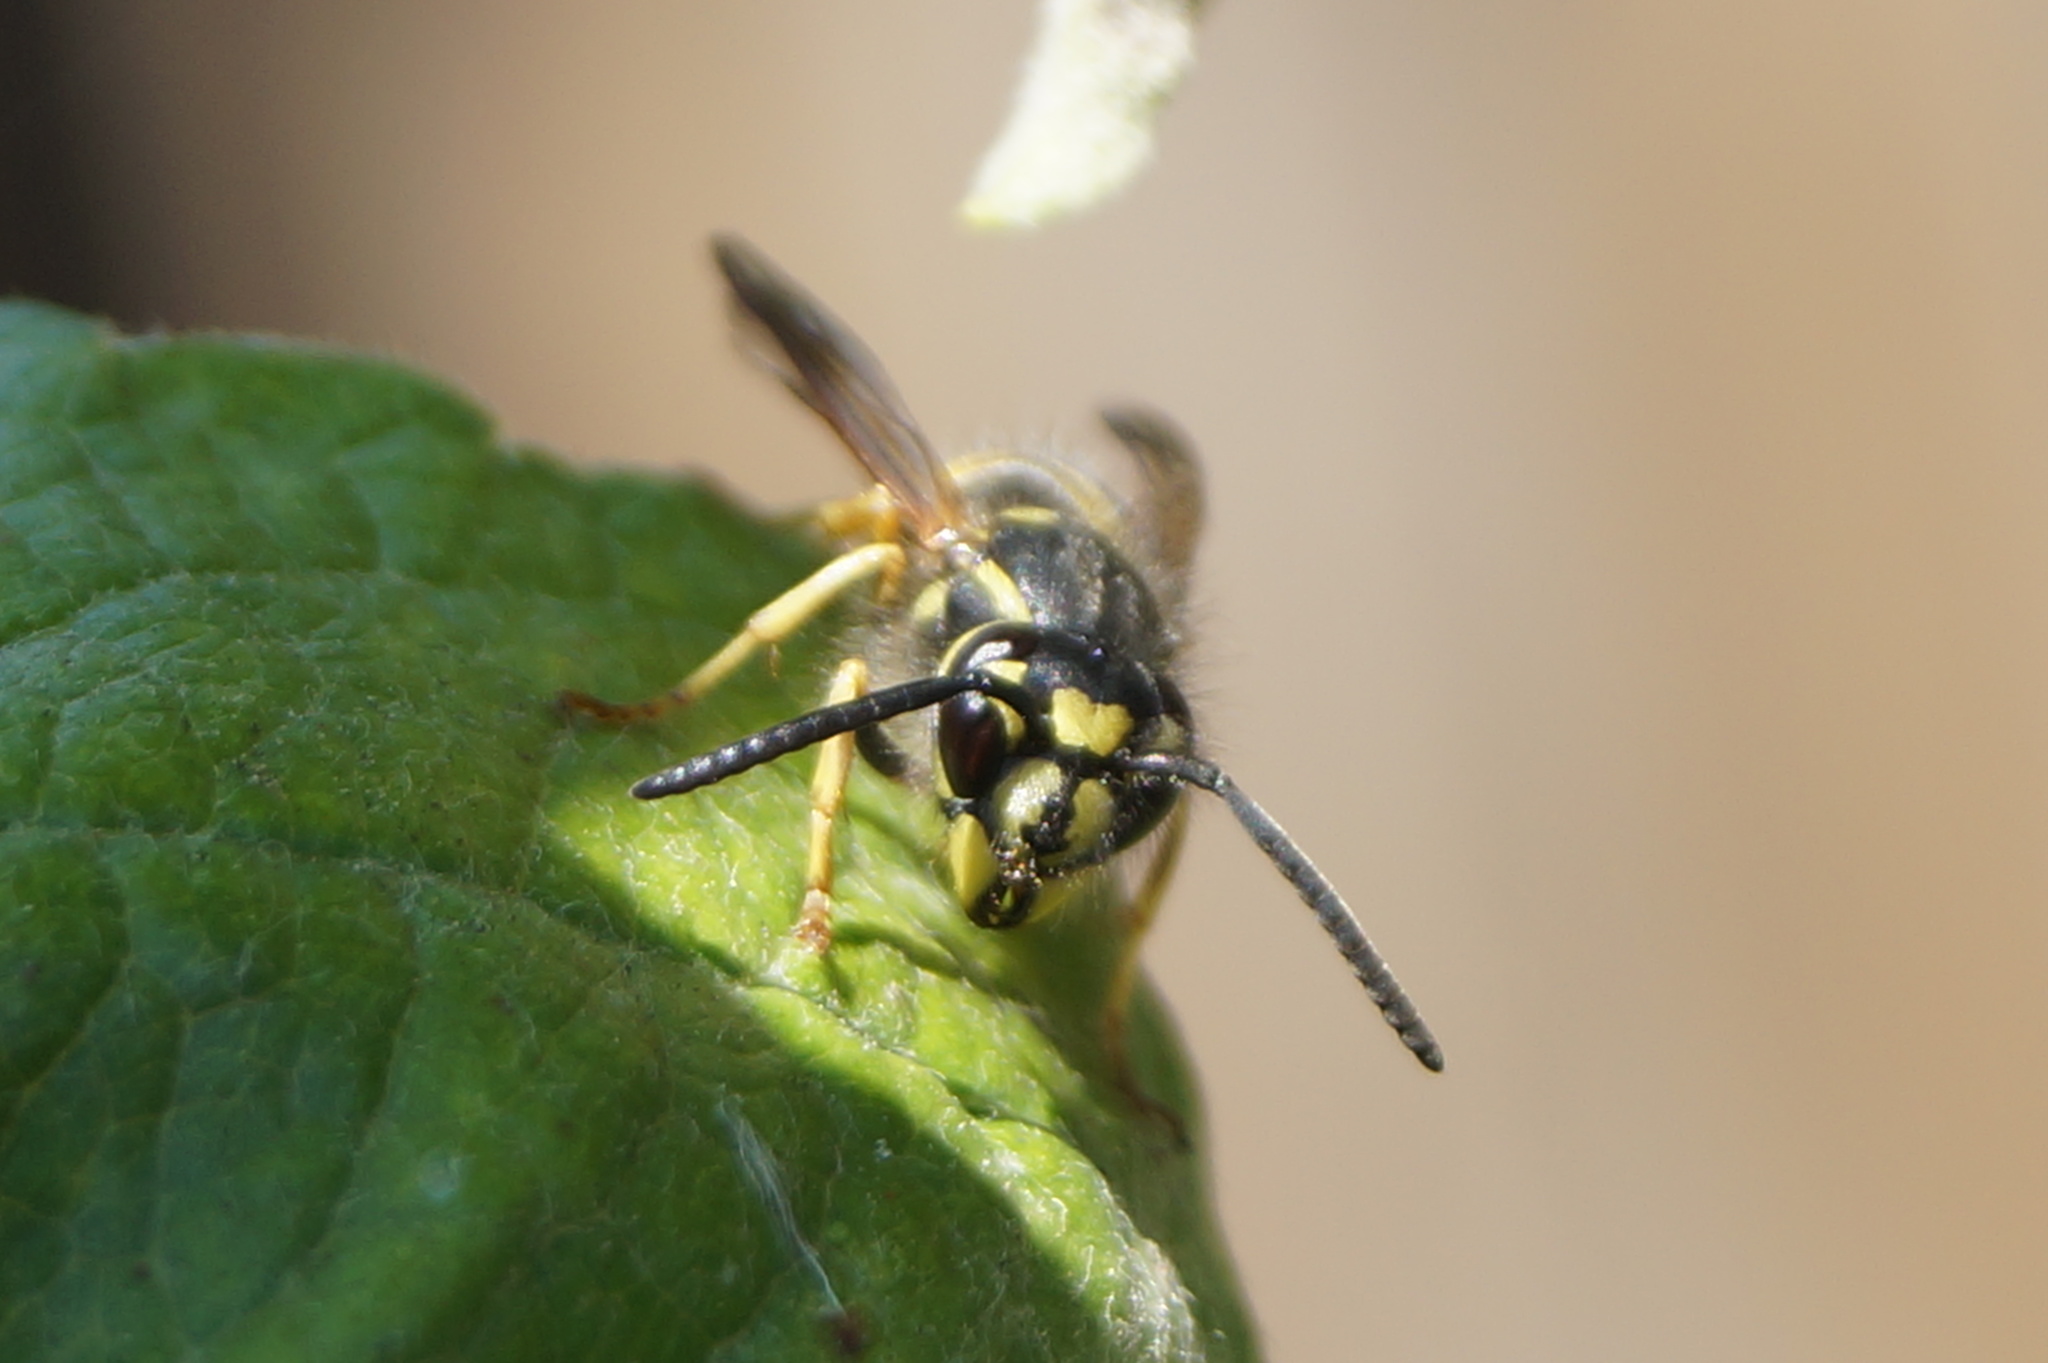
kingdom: Animalia
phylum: Arthropoda
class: Insecta
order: Hymenoptera
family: Vespidae
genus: Vespula
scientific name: Vespula vulgaris
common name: Common wasp
